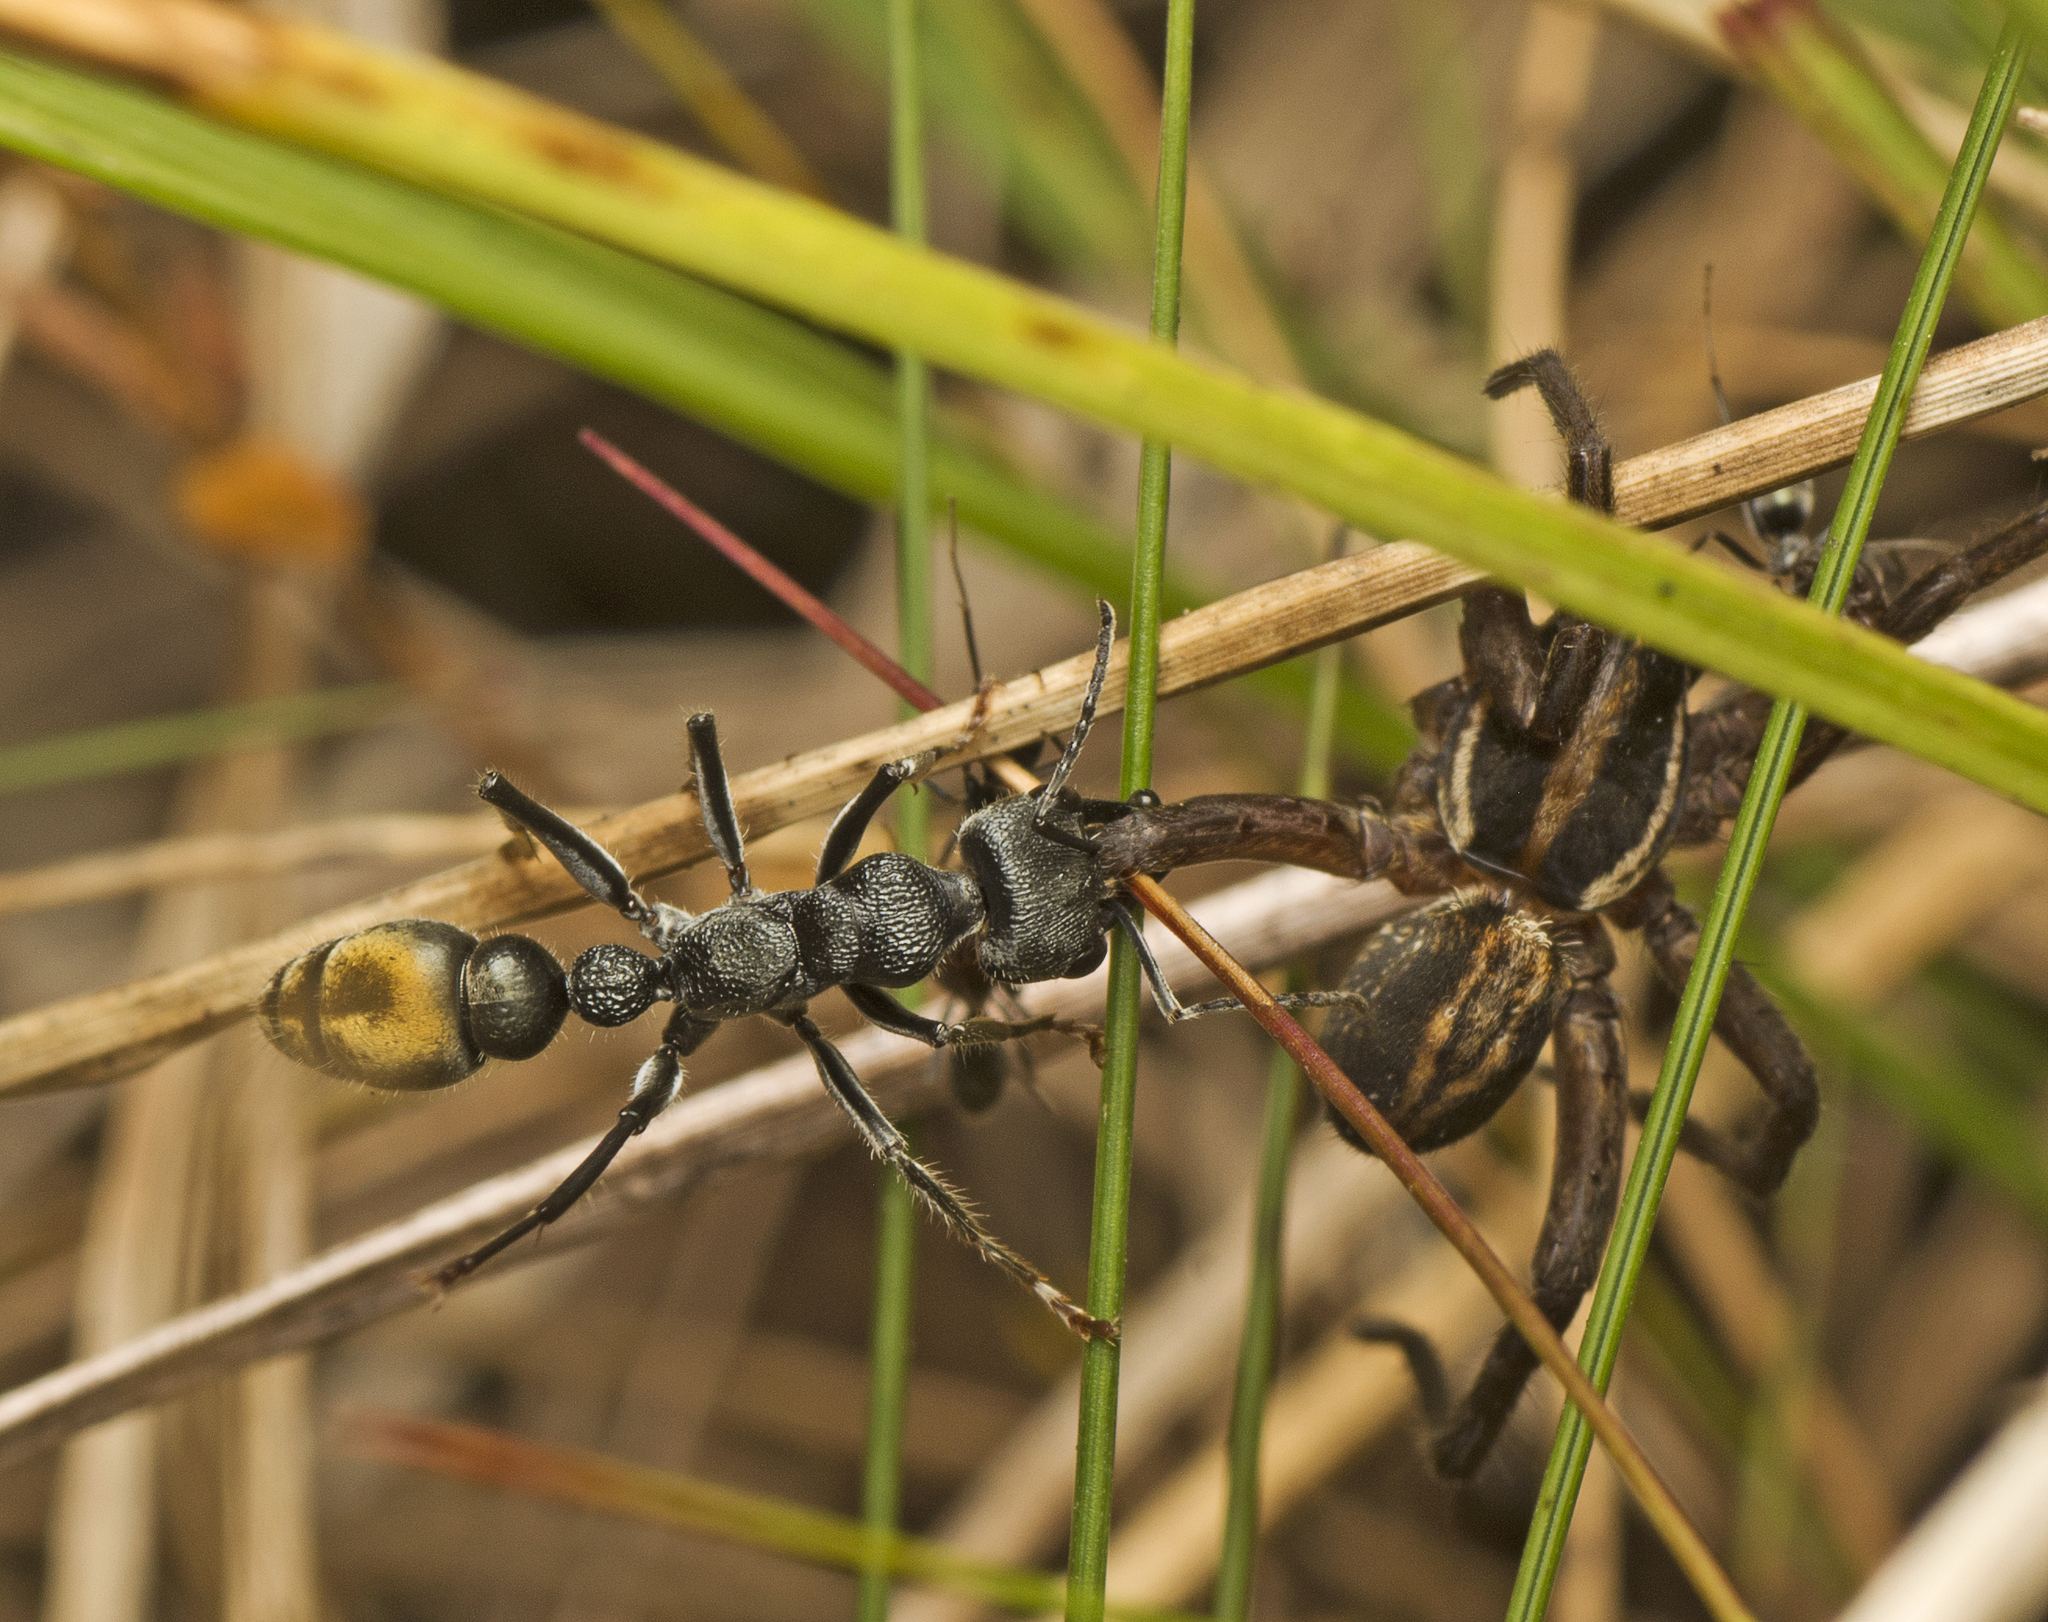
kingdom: Animalia
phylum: Arthropoda
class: Insecta
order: Hymenoptera
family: Formicidae
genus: Myrmecia
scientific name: Myrmecia gilberti
